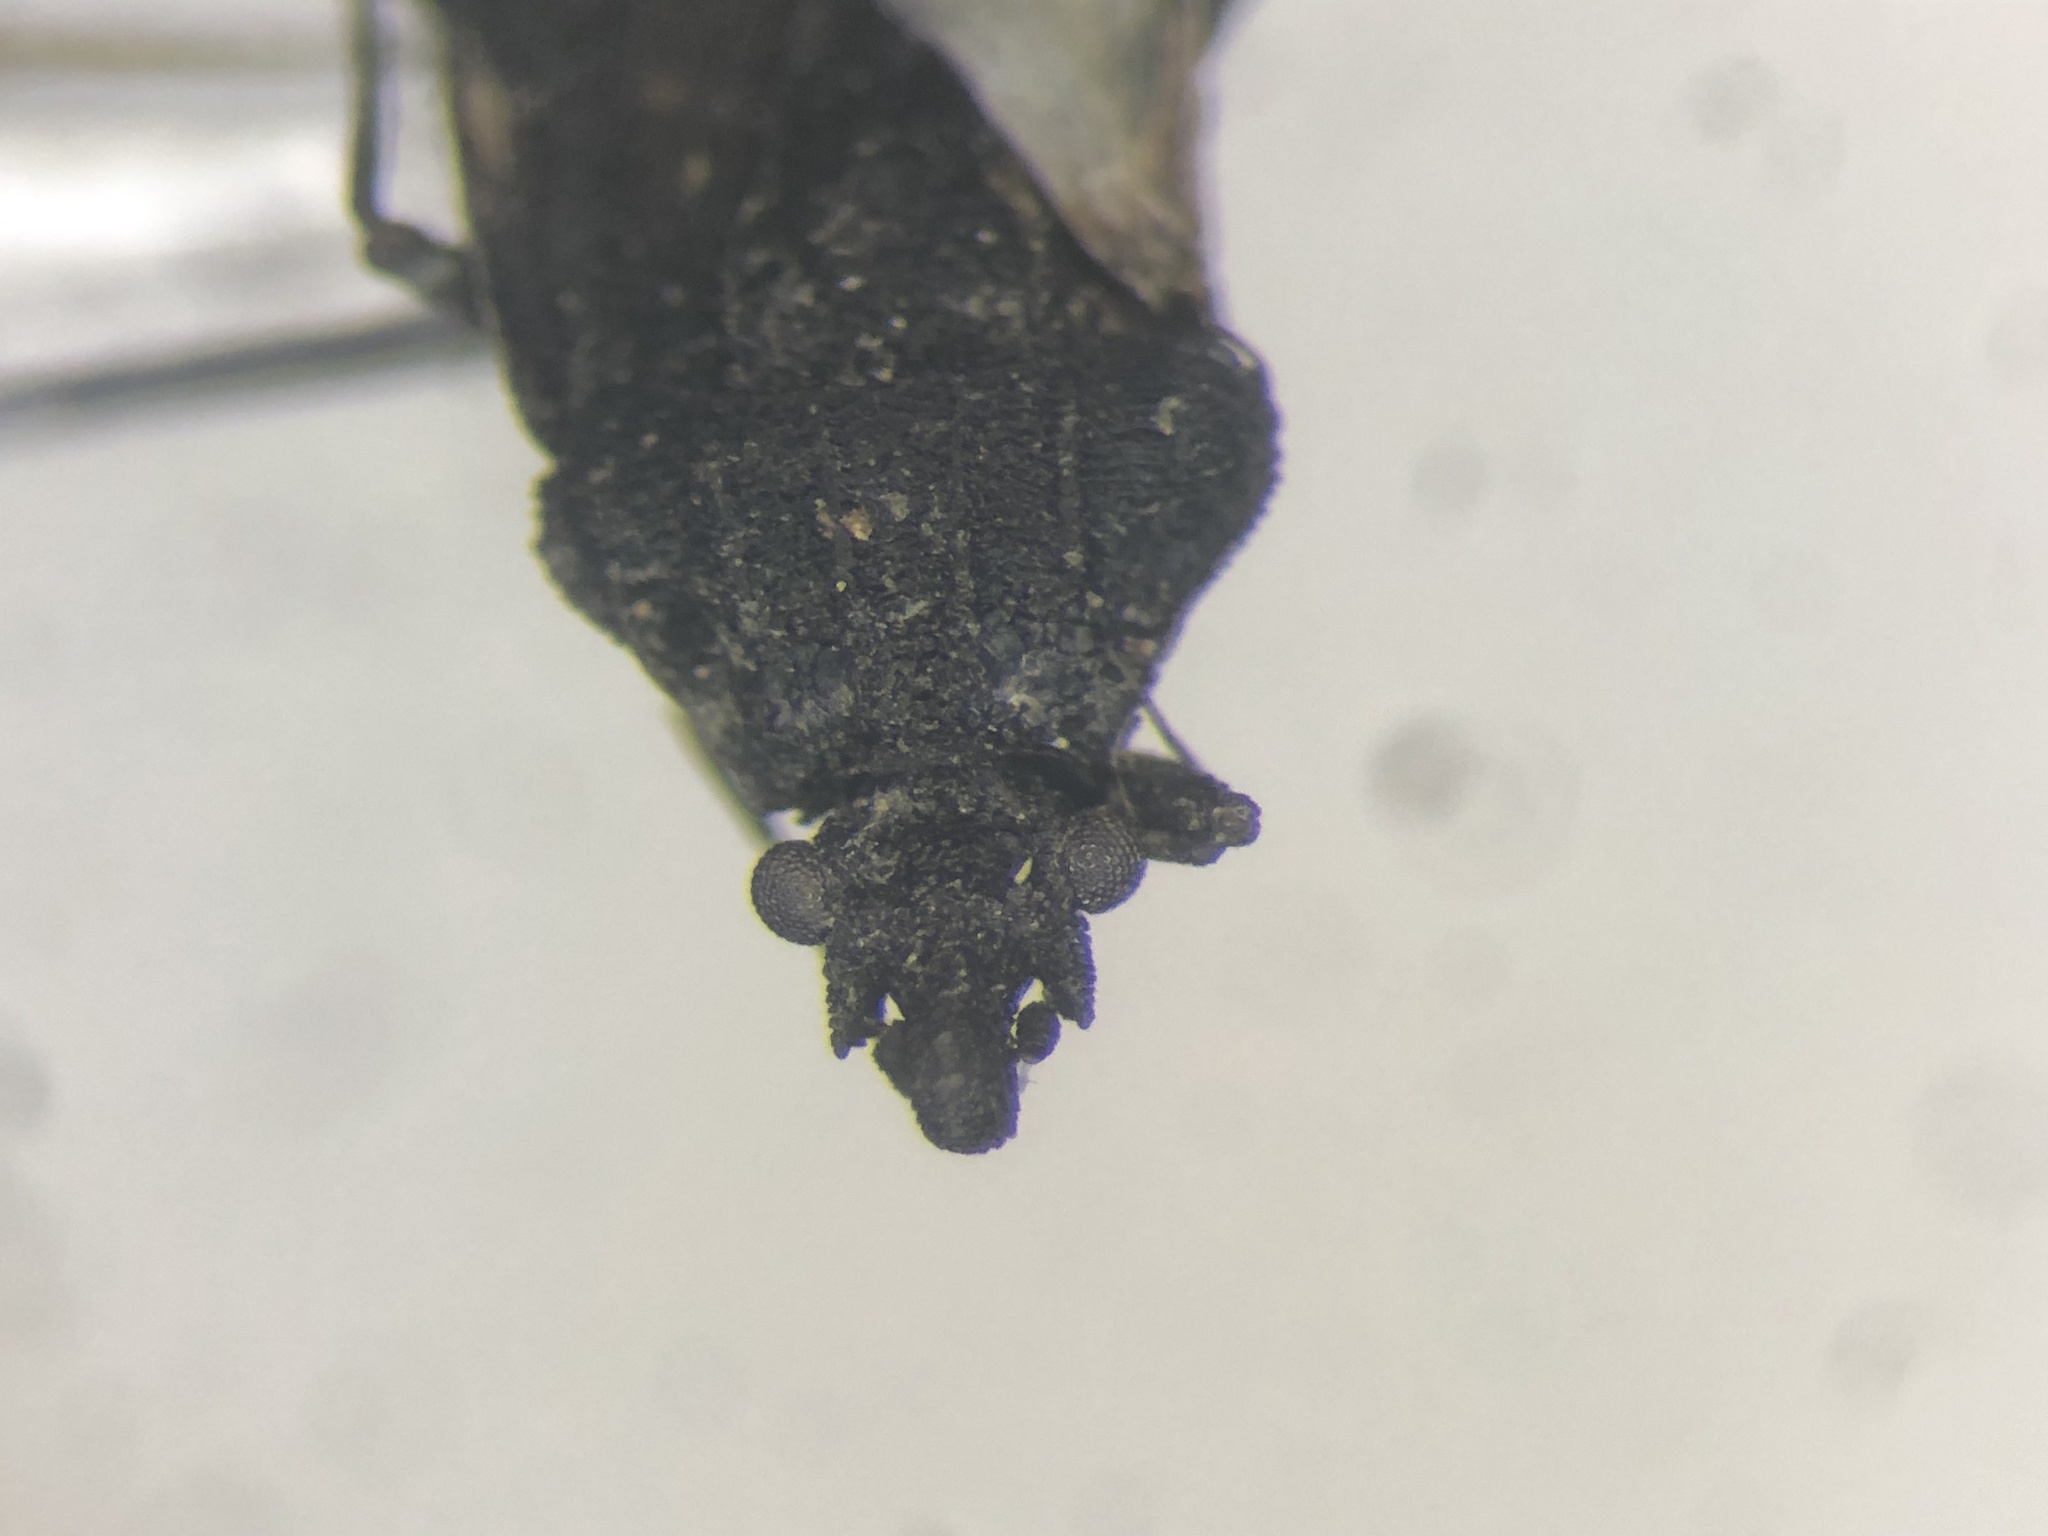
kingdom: Animalia
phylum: Arthropoda
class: Insecta
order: Hemiptera
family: Aradidae
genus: Aradus
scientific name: Aradus abbas
